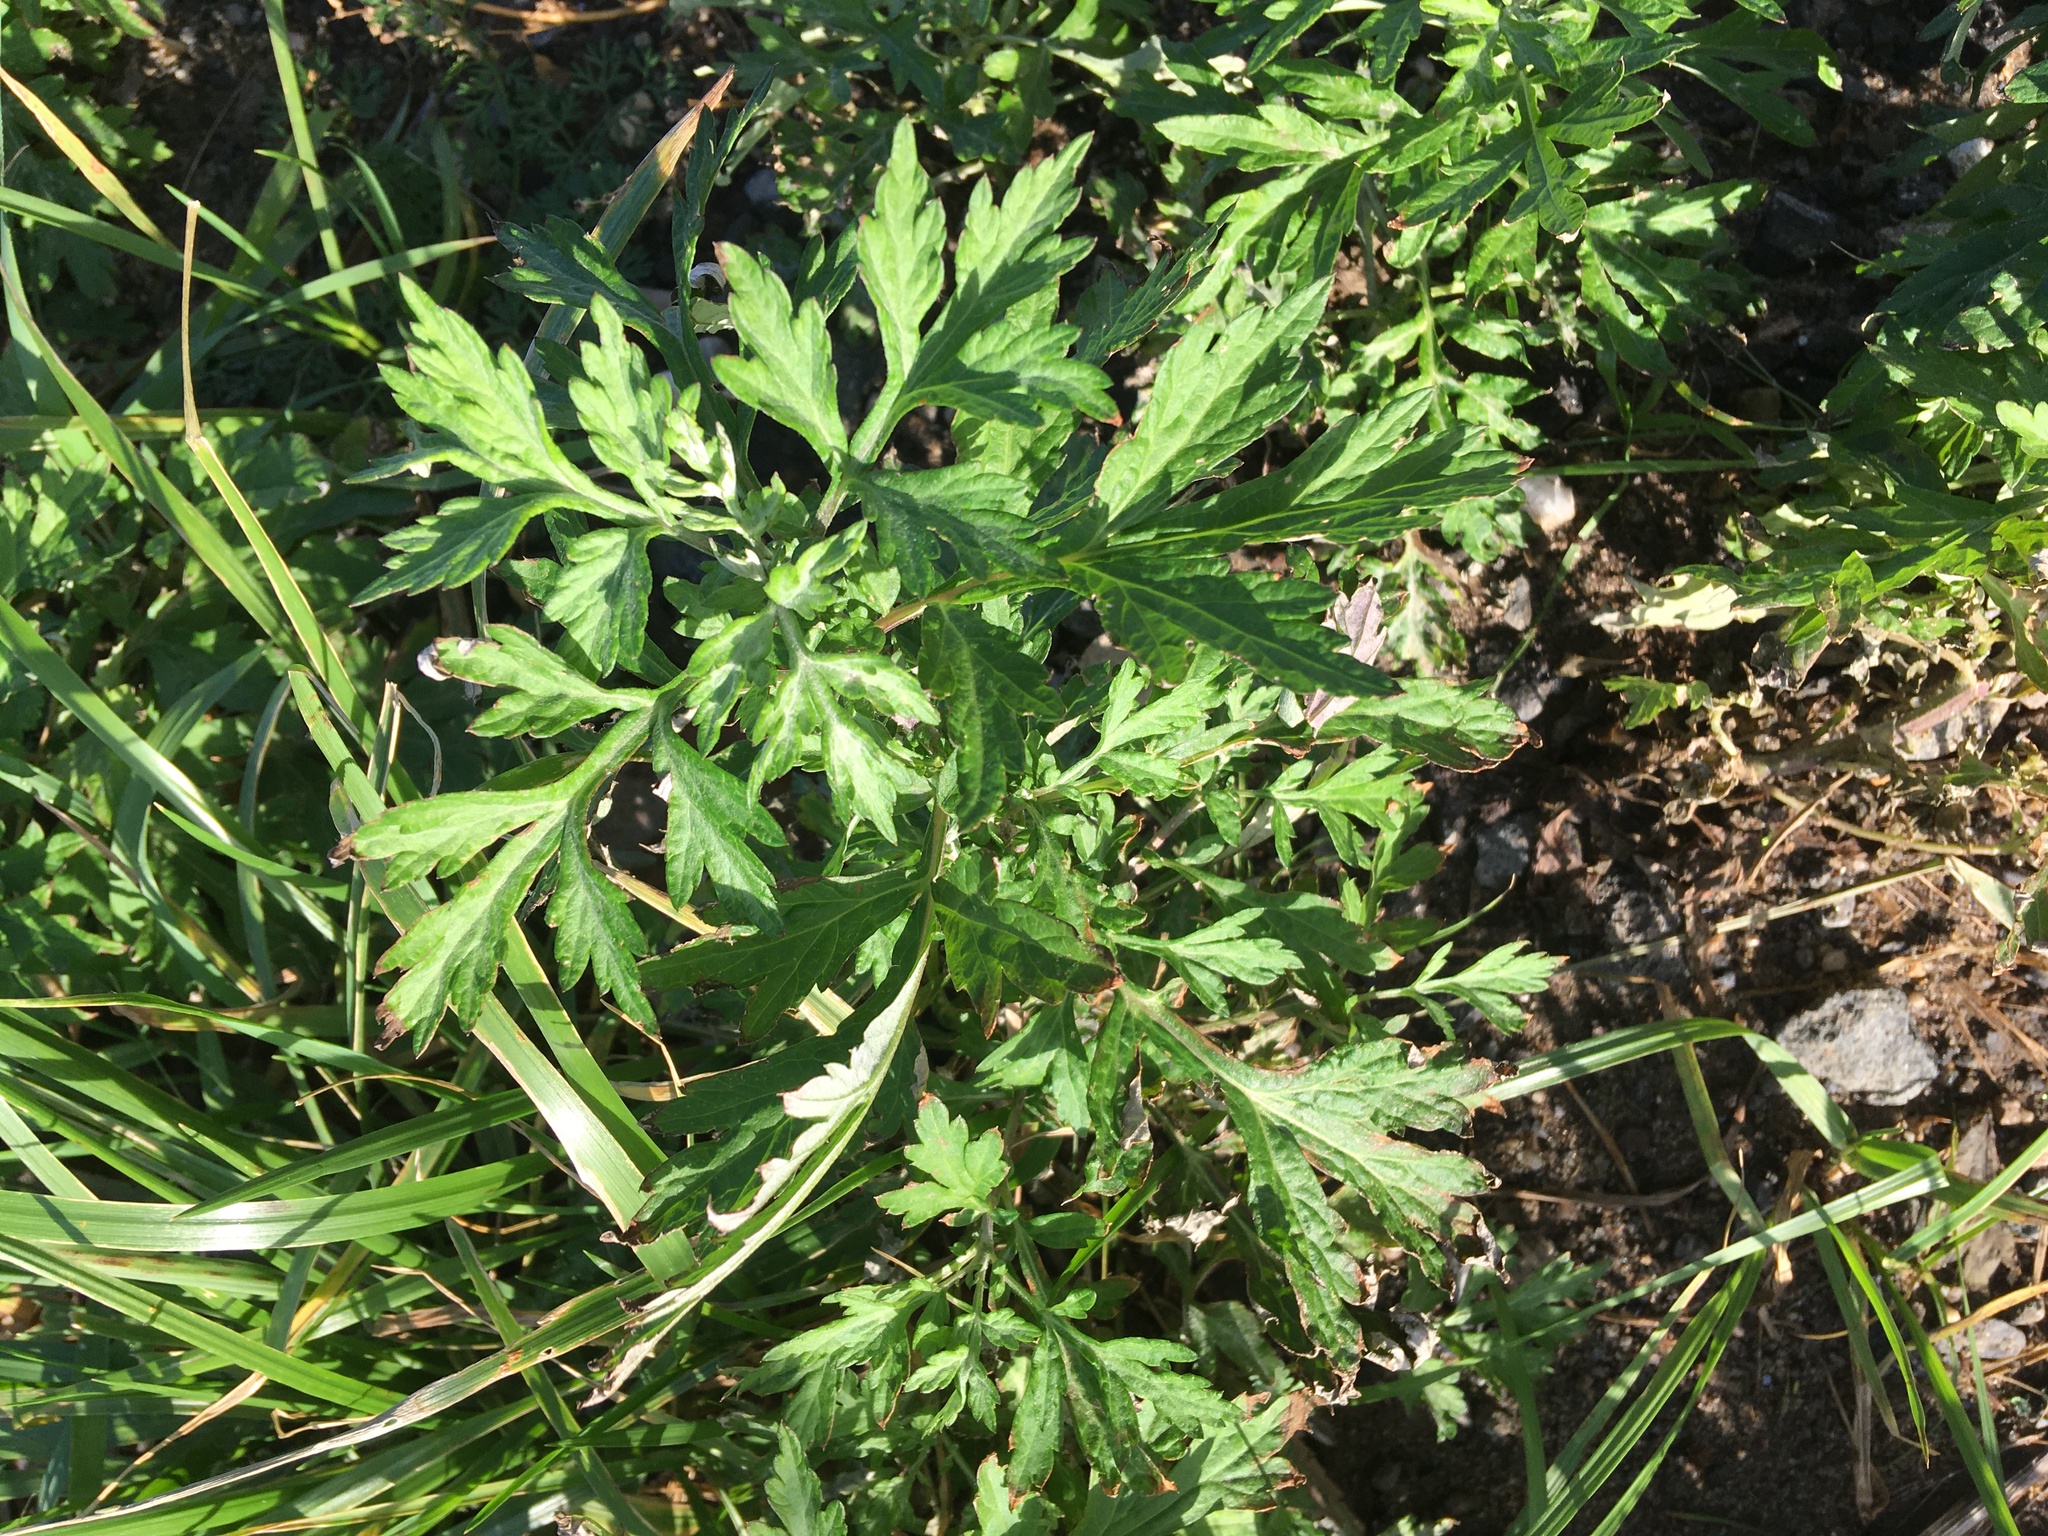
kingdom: Plantae
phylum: Tracheophyta
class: Magnoliopsida
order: Asterales
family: Asteraceae
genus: Artemisia
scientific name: Artemisia vulgaris
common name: Mugwort
